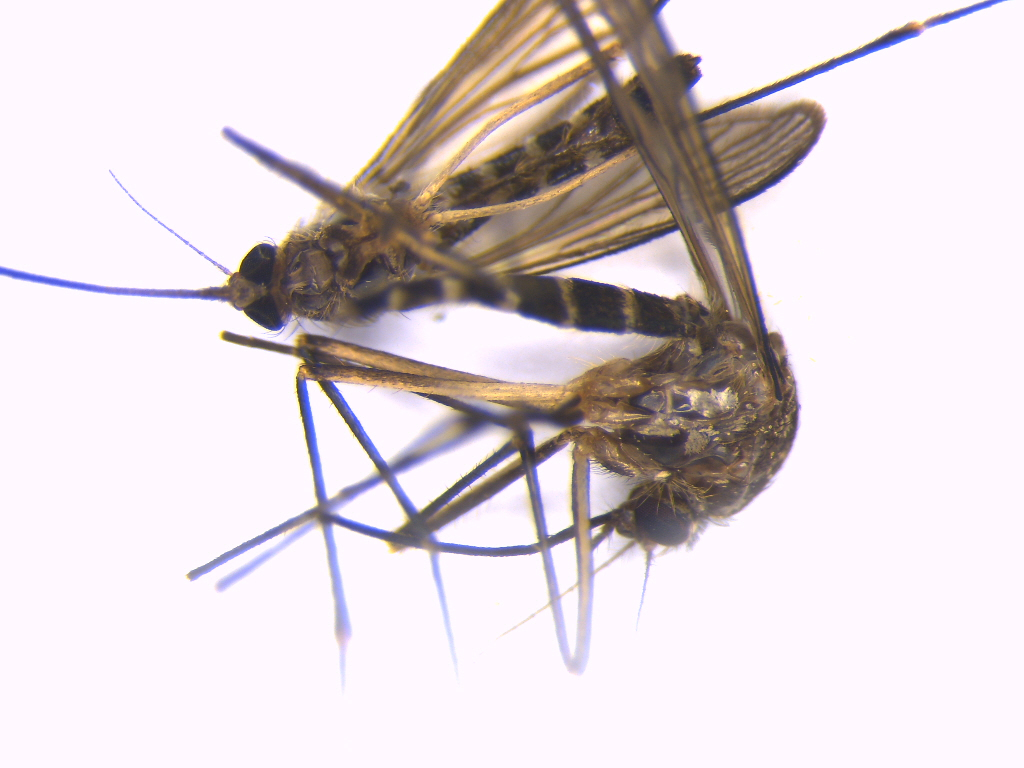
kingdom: Animalia
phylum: Arthropoda
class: Insecta
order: Diptera
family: Culicidae
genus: Aedes
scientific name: Aedes antipodeus
